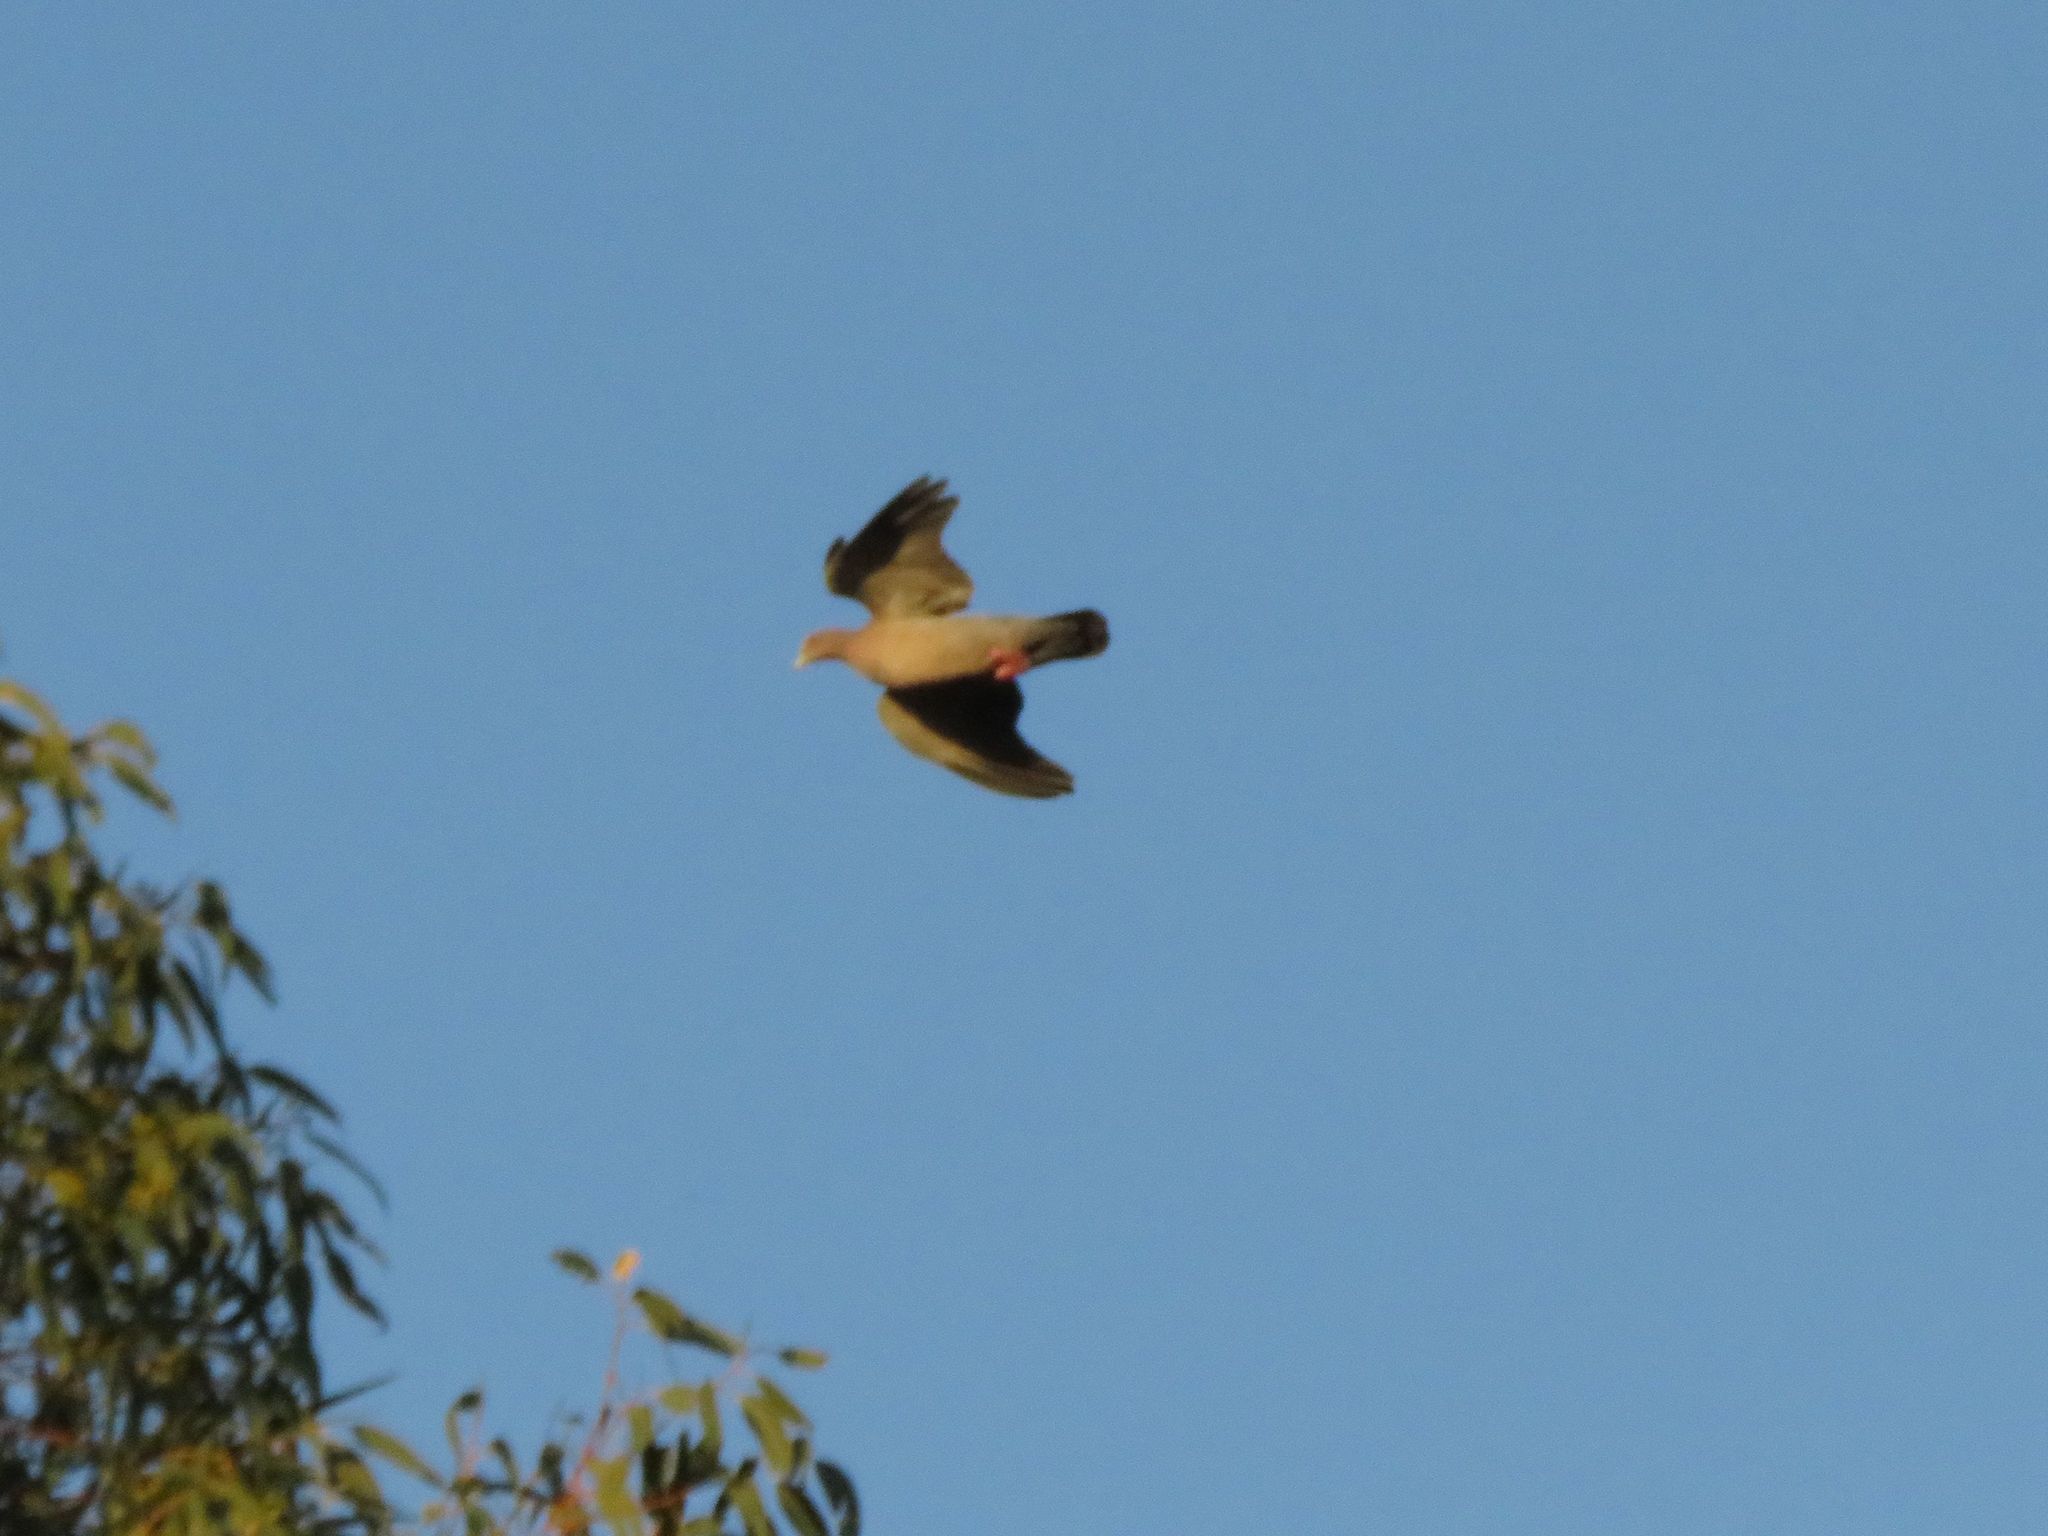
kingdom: Animalia
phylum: Chordata
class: Aves
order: Columbiformes
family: Columbidae
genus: Patagioenas
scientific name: Patagioenas picazuro
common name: Picazuro pigeon
